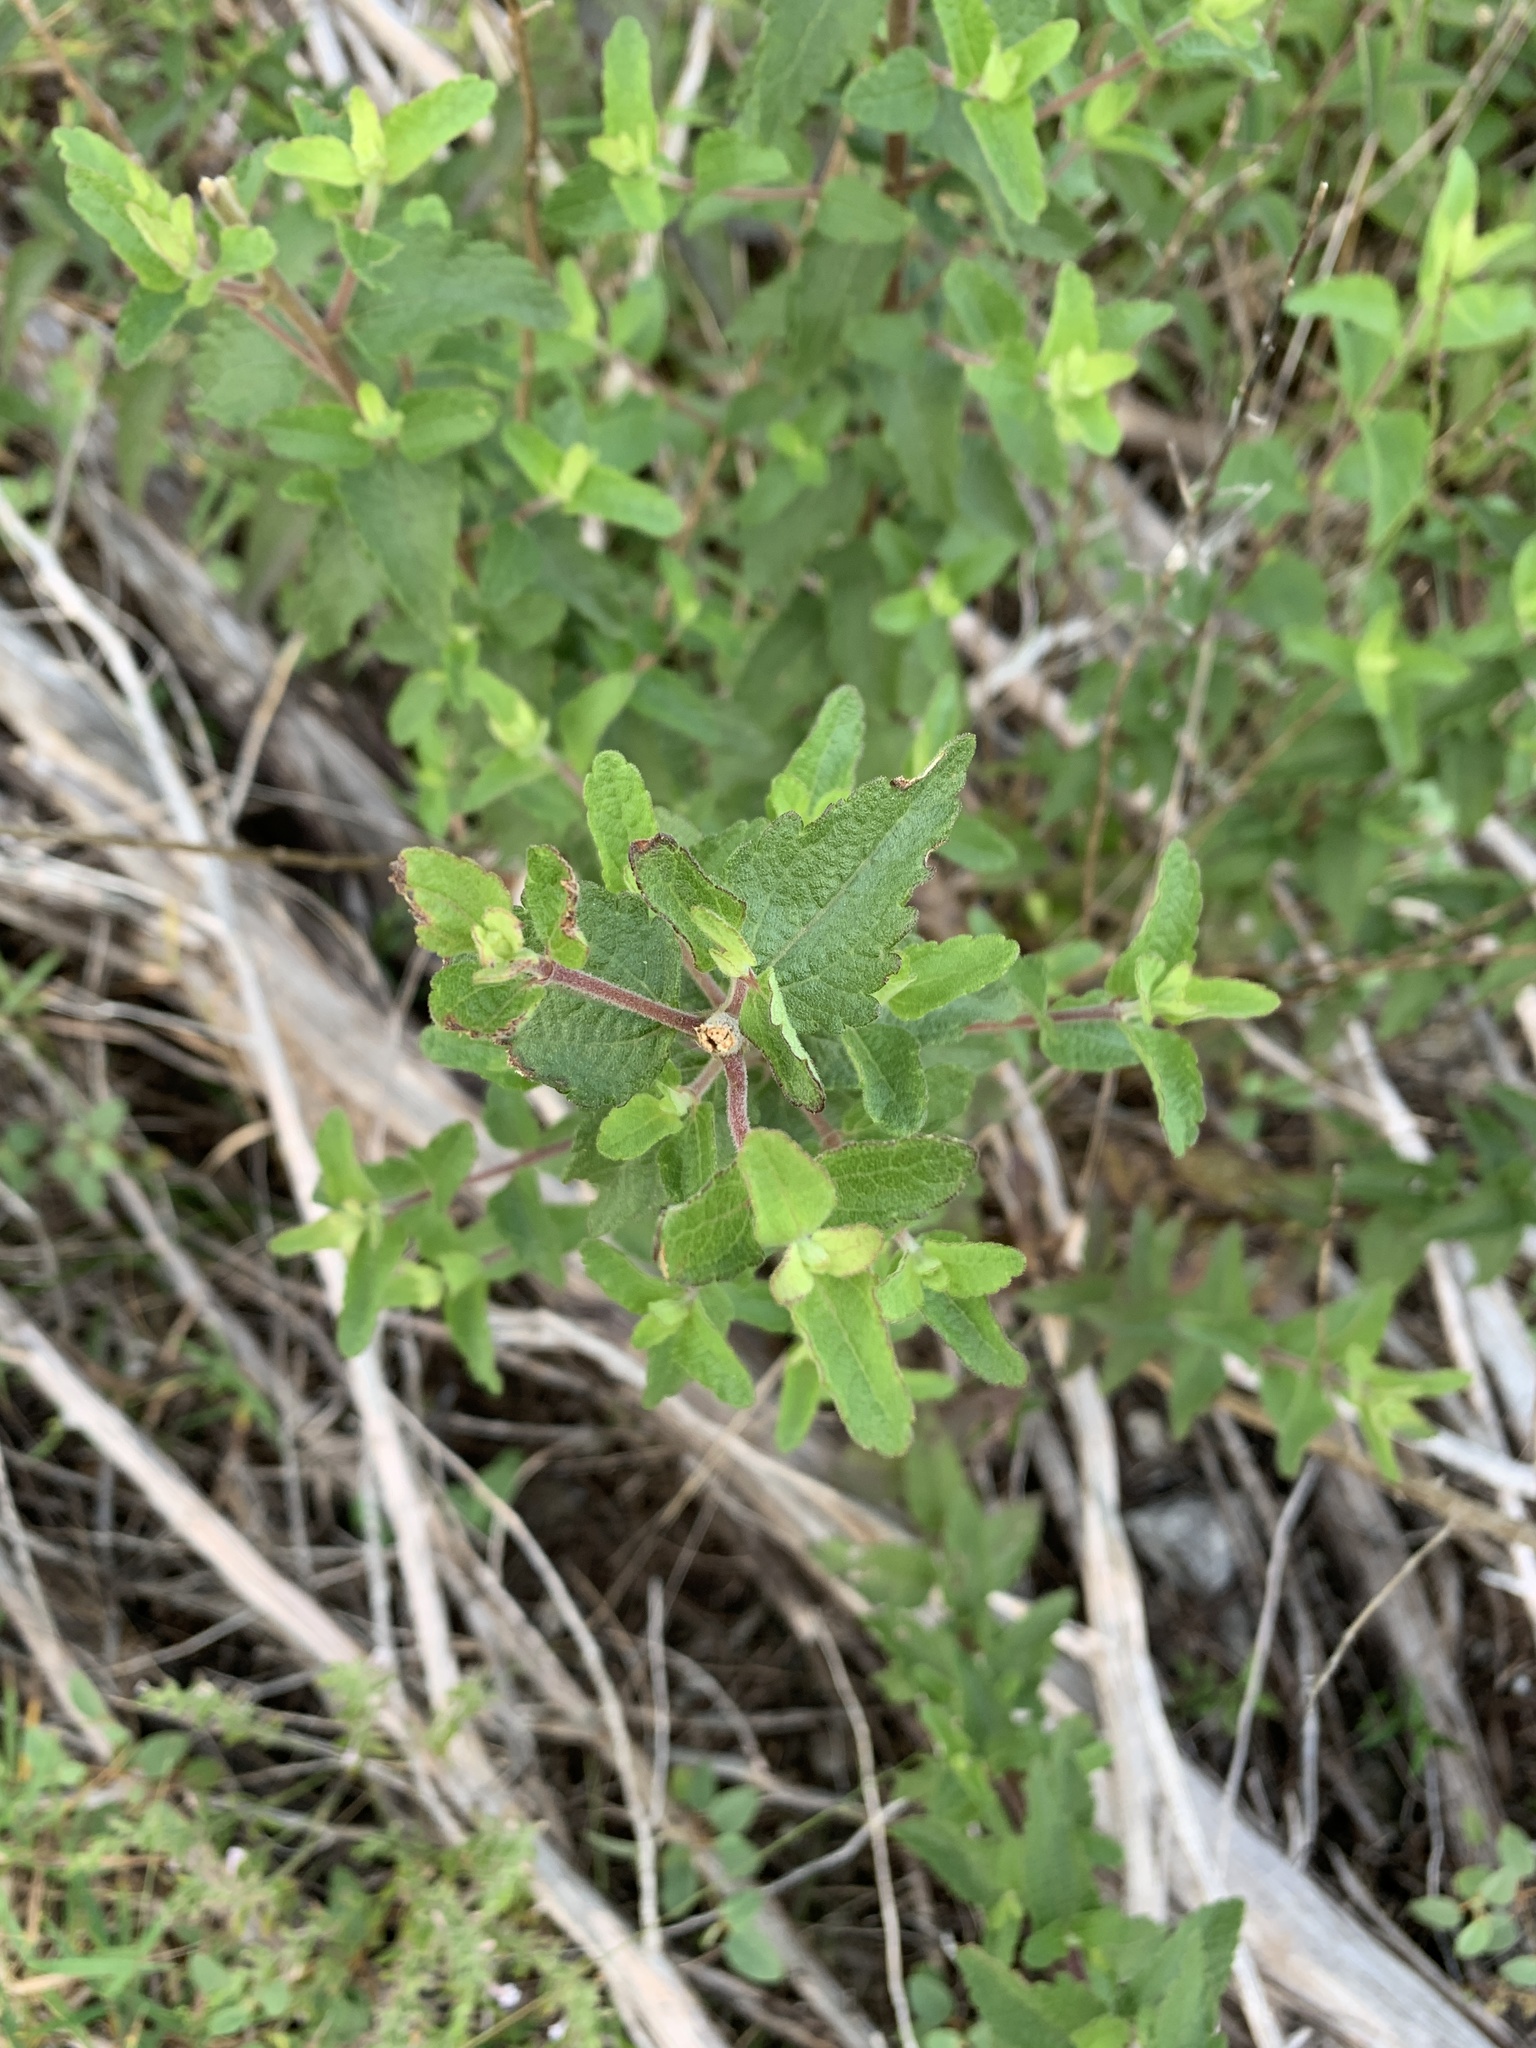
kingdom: Plantae
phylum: Tracheophyta
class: Magnoliopsida
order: Asterales
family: Asteraceae
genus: Brickellia
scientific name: Brickellia cylindracea
